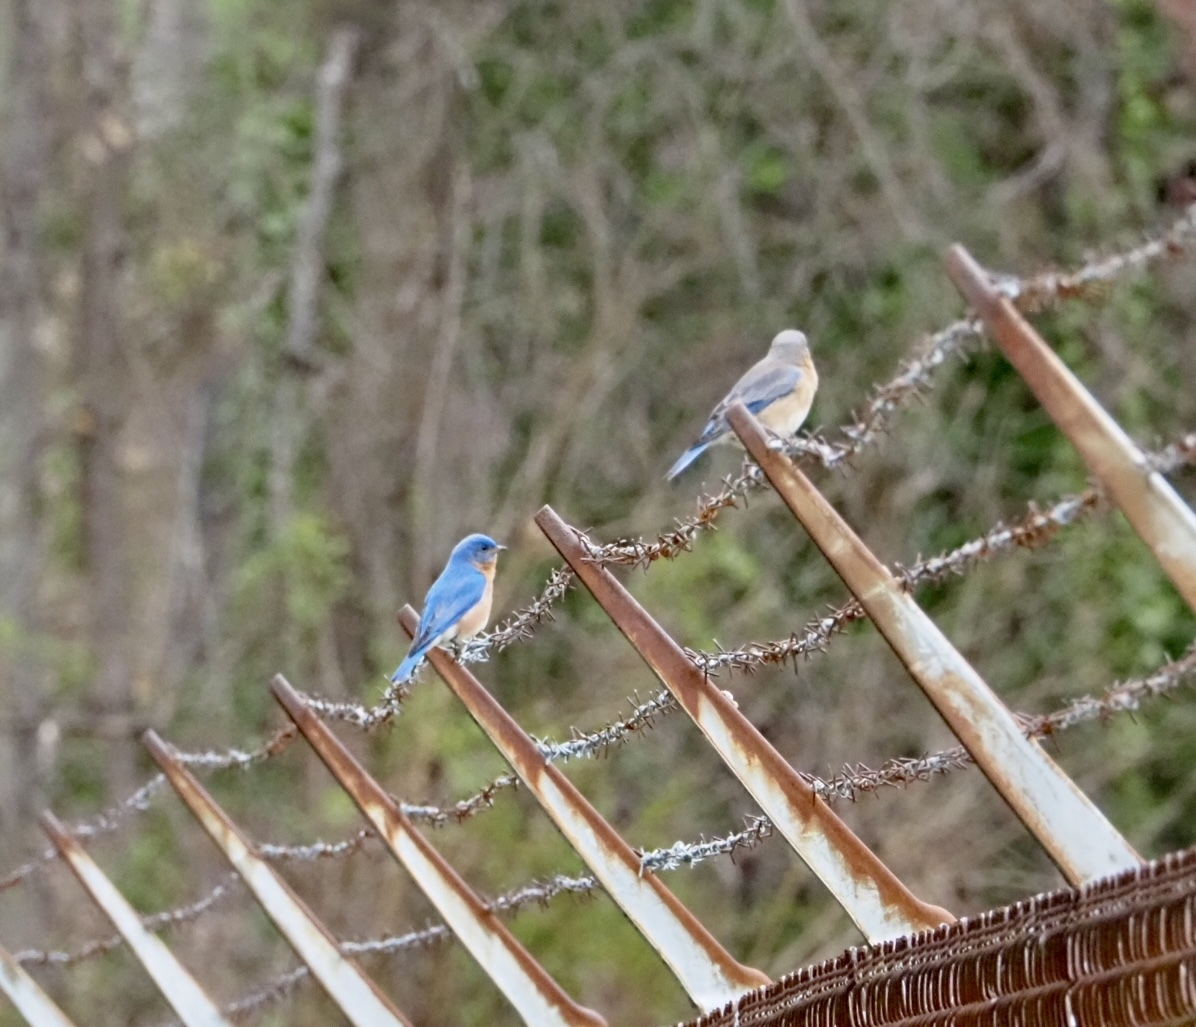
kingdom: Animalia
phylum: Chordata
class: Aves
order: Passeriformes
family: Turdidae
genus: Sialia
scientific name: Sialia sialis
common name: Eastern bluebird
